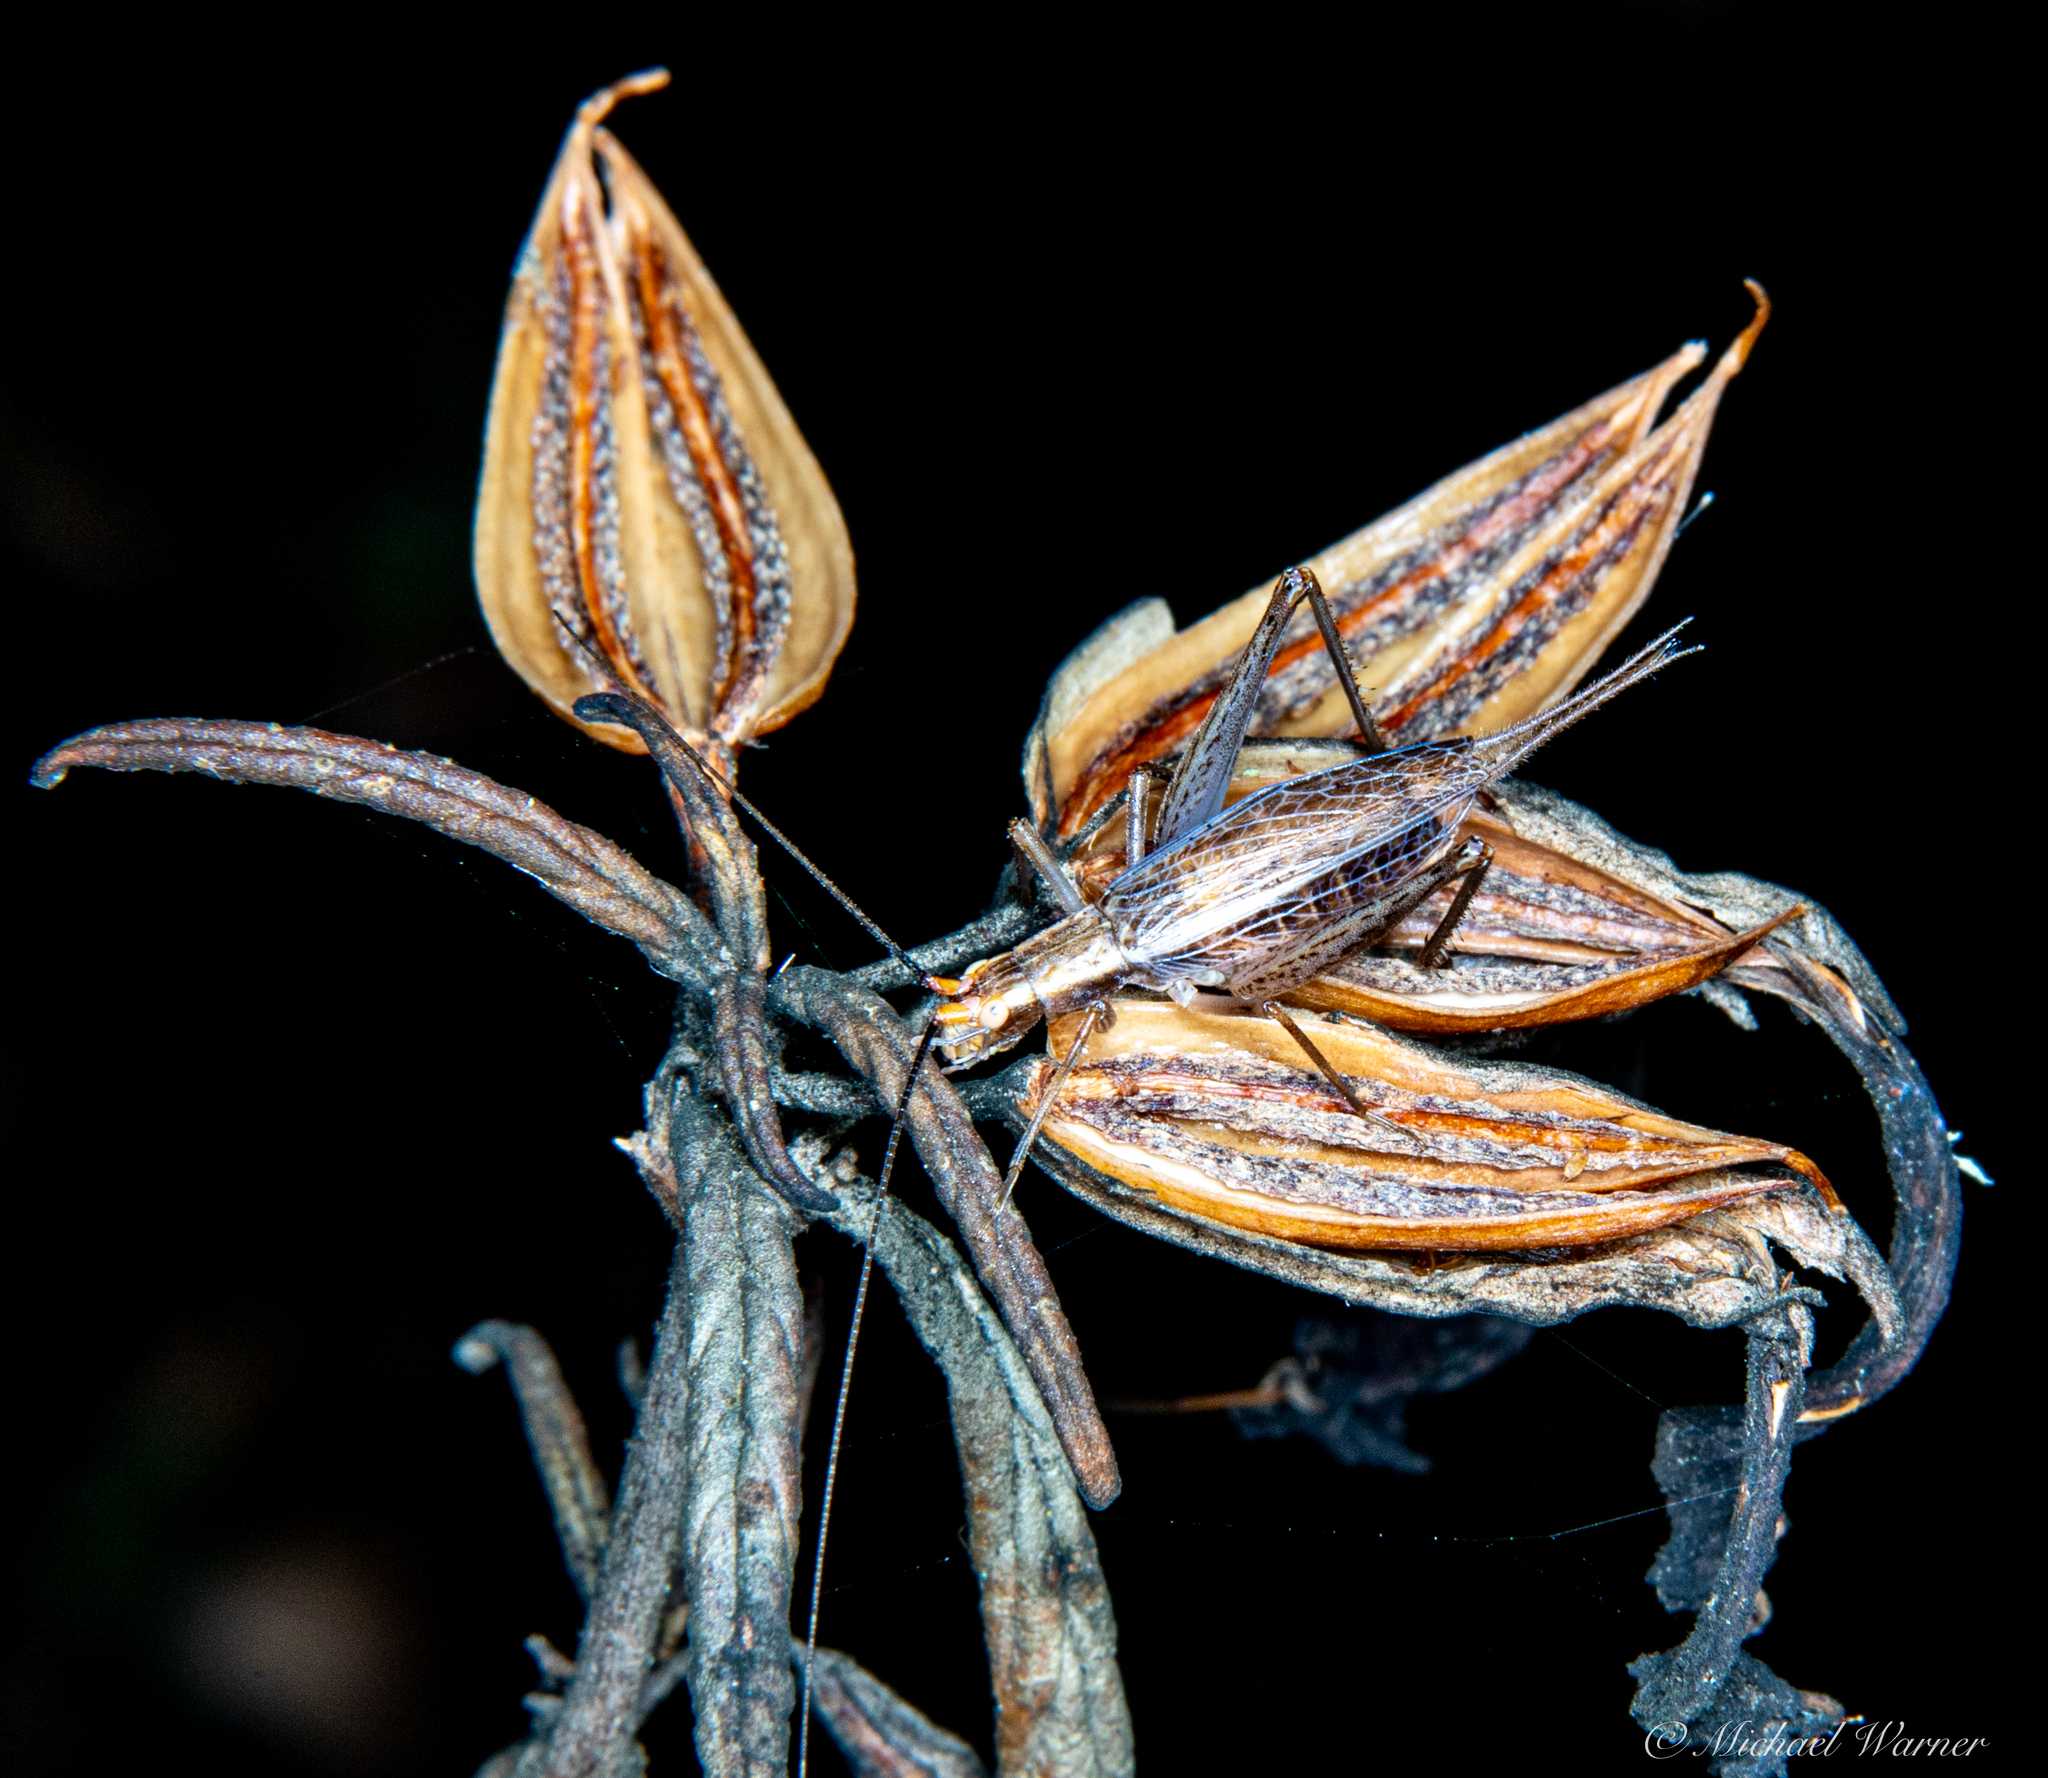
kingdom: Animalia
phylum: Arthropoda
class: Insecta
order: Orthoptera
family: Gryllidae
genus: Oecanthus
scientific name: Oecanthus californicus
